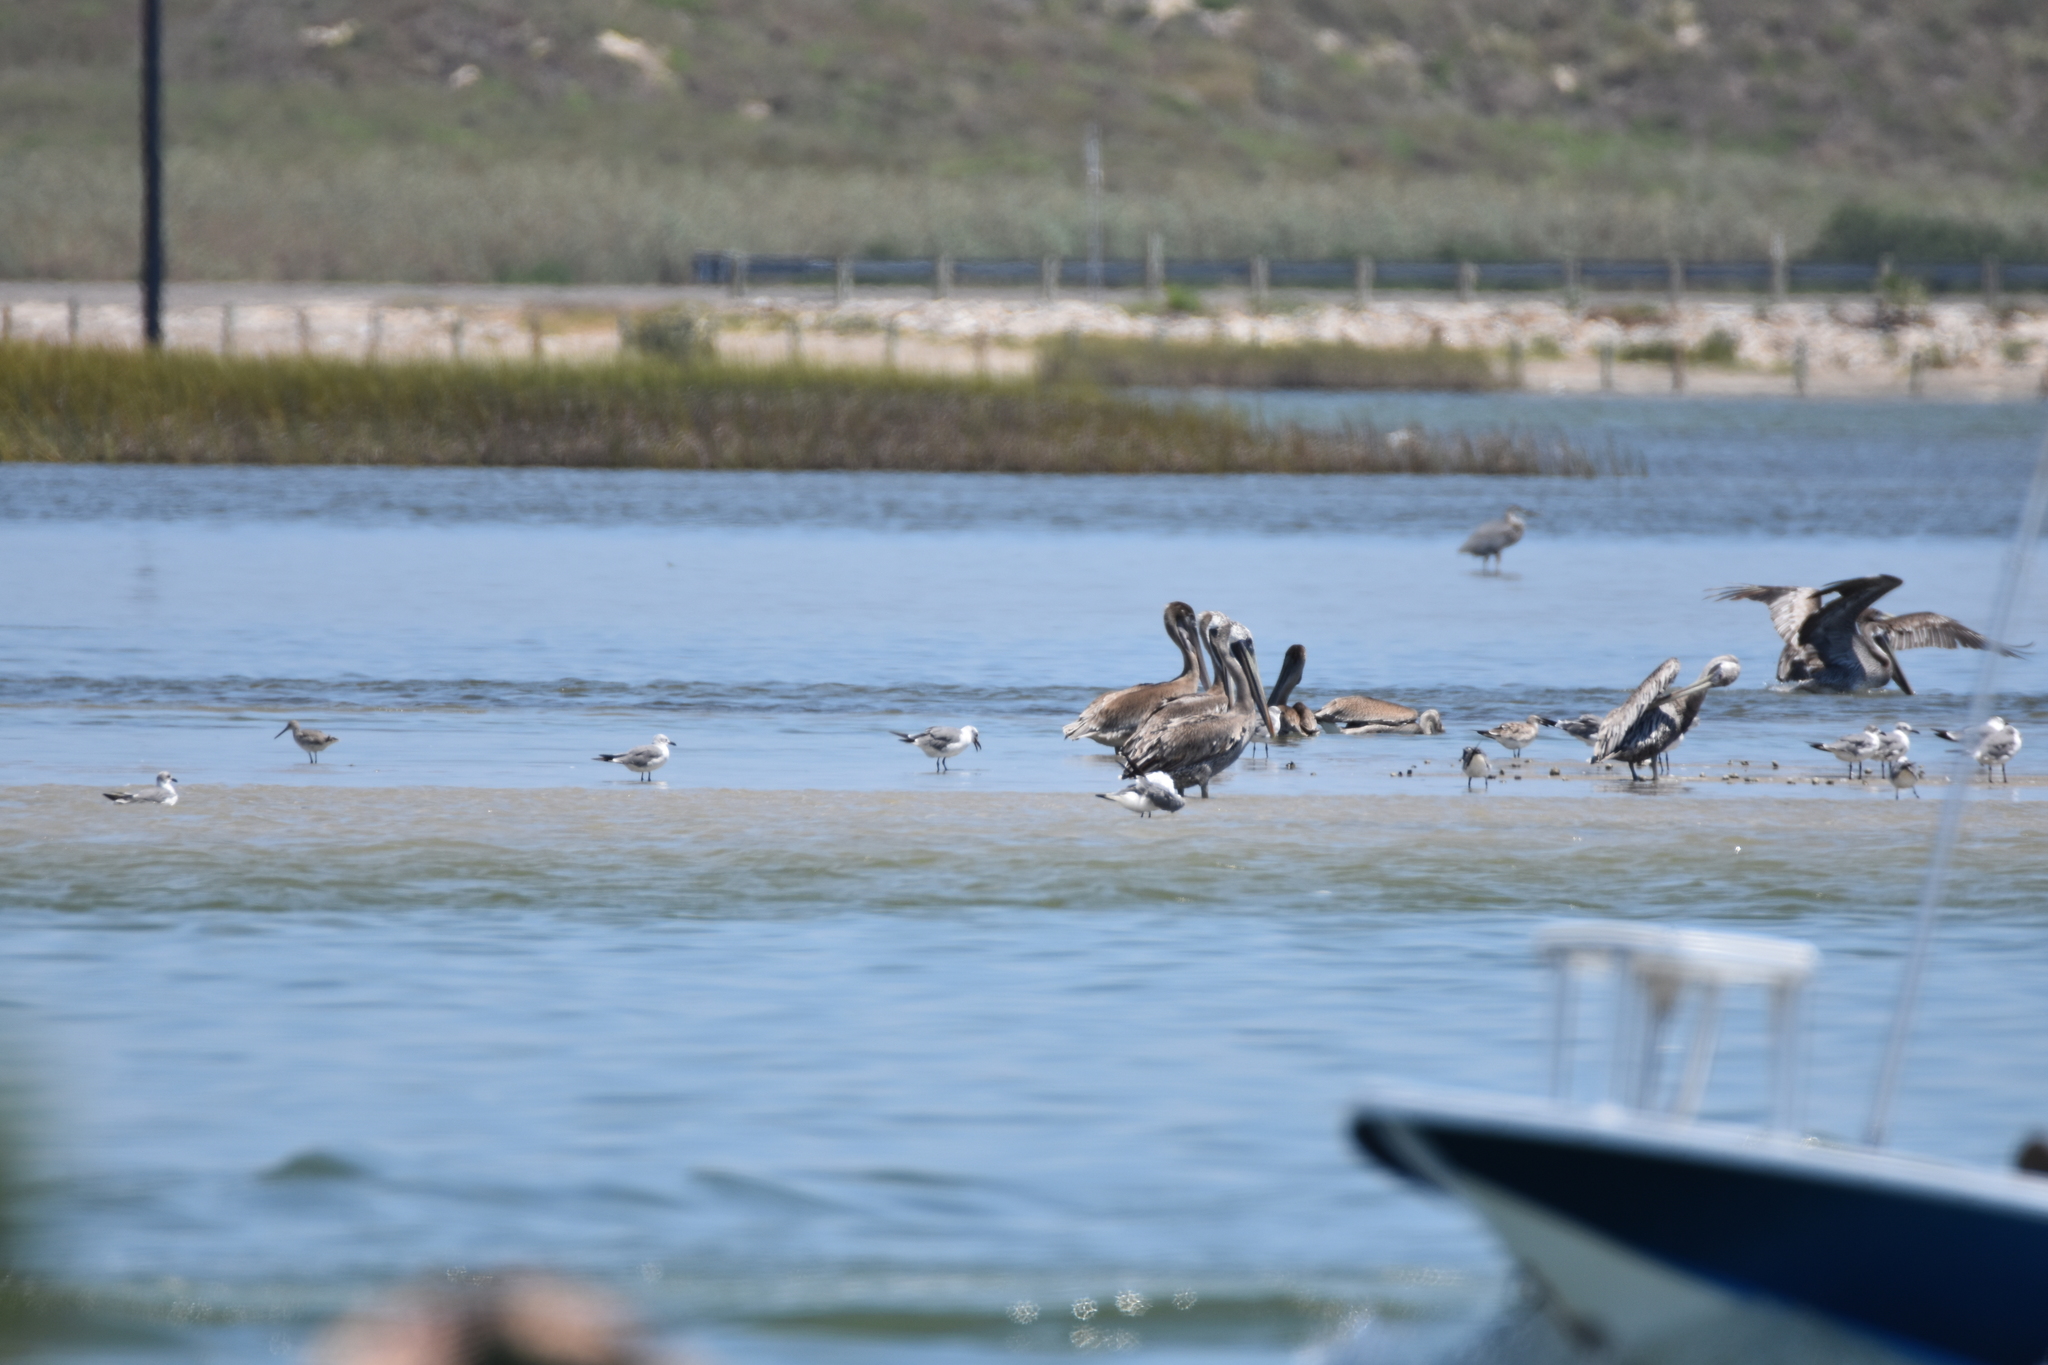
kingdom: Animalia
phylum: Chordata
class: Aves
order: Charadriiformes
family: Scolopacidae
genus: Tringa
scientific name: Tringa semipalmata
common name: Willet
